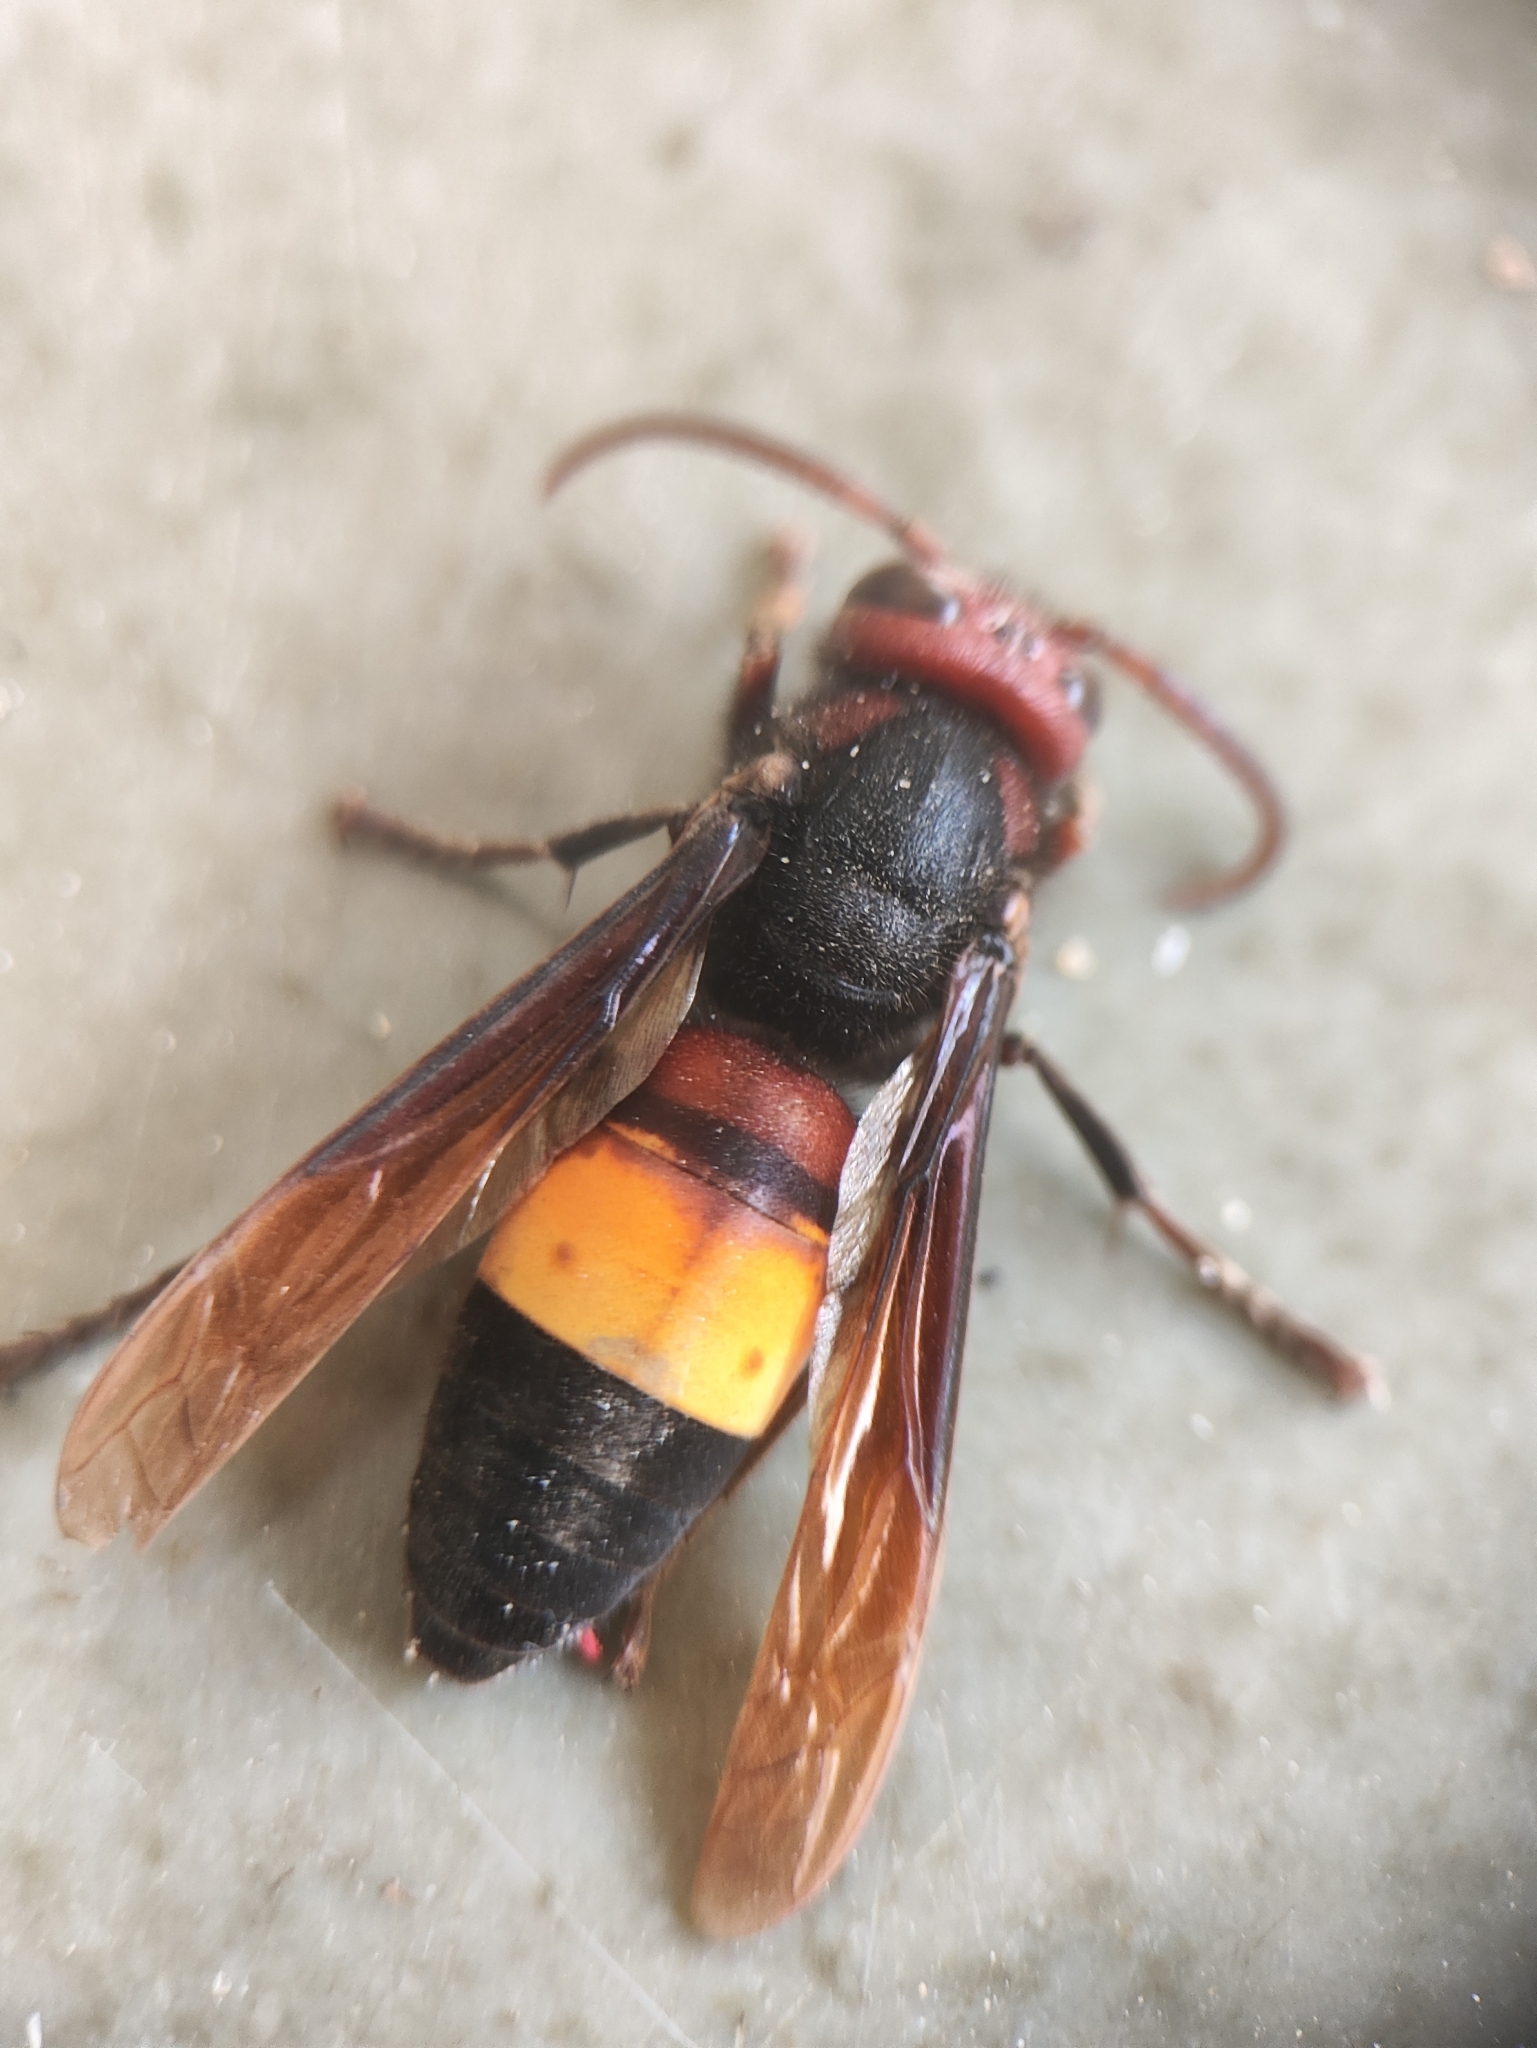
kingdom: Animalia
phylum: Arthropoda
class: Insecta
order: Hymenoptera
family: Vespidae
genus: Vespa
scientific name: Vespa affinis
